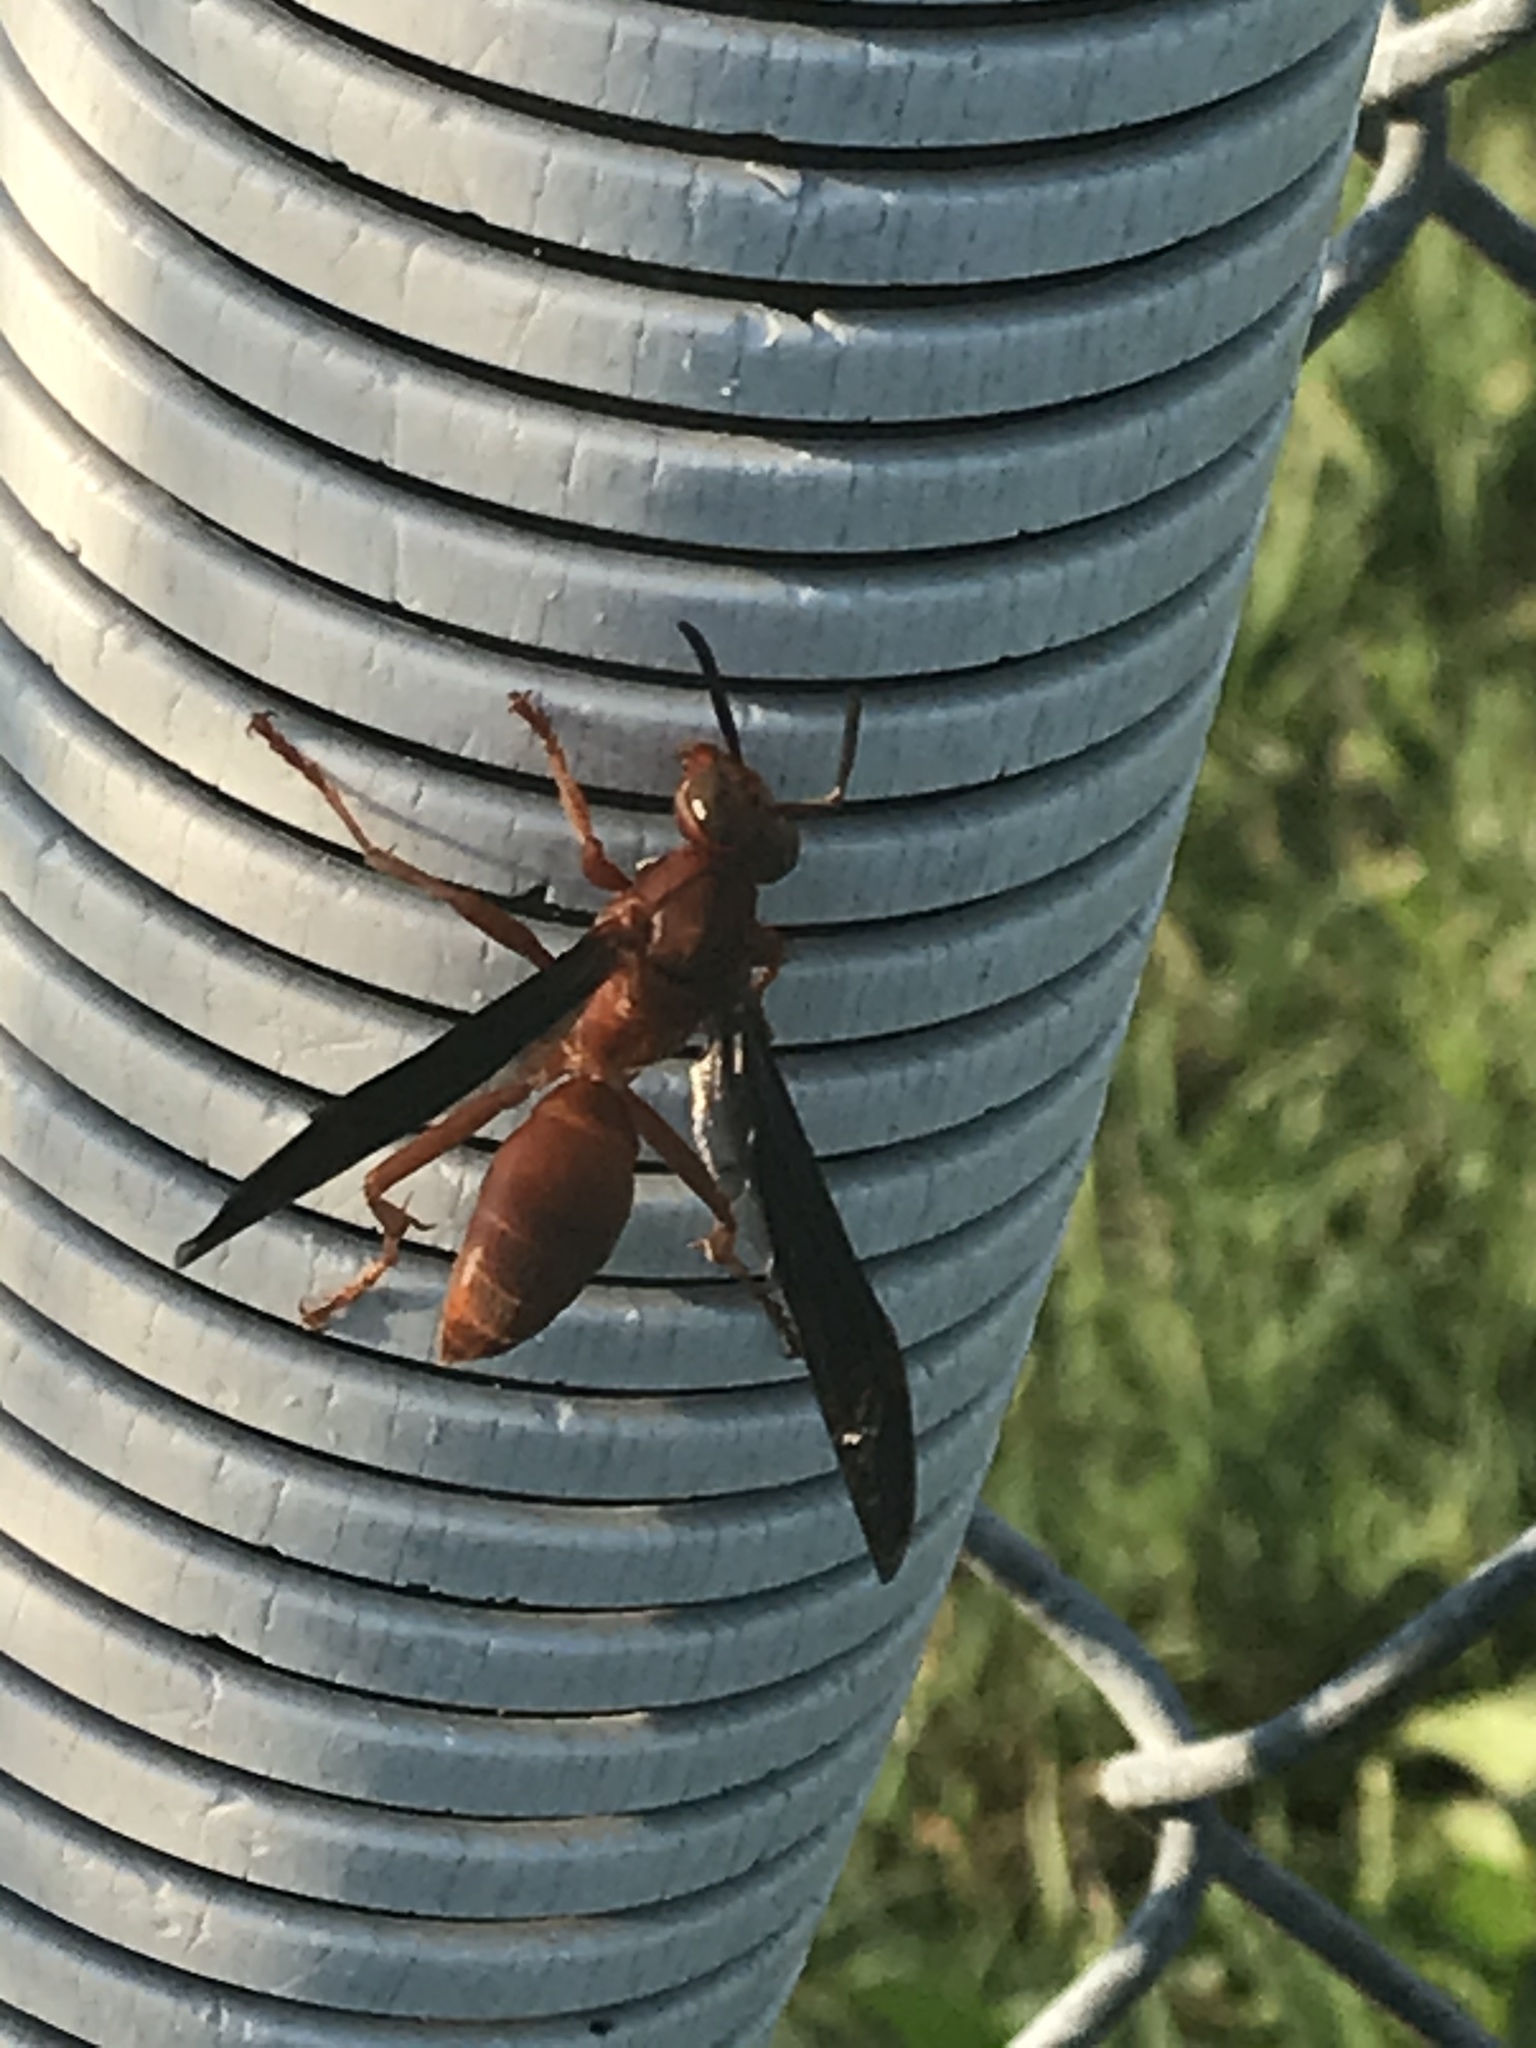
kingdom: Animalia
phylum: Arthropoda
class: Insecta
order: Hymenoptera
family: Eumenidae
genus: Polistes
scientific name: Polistes carolina
